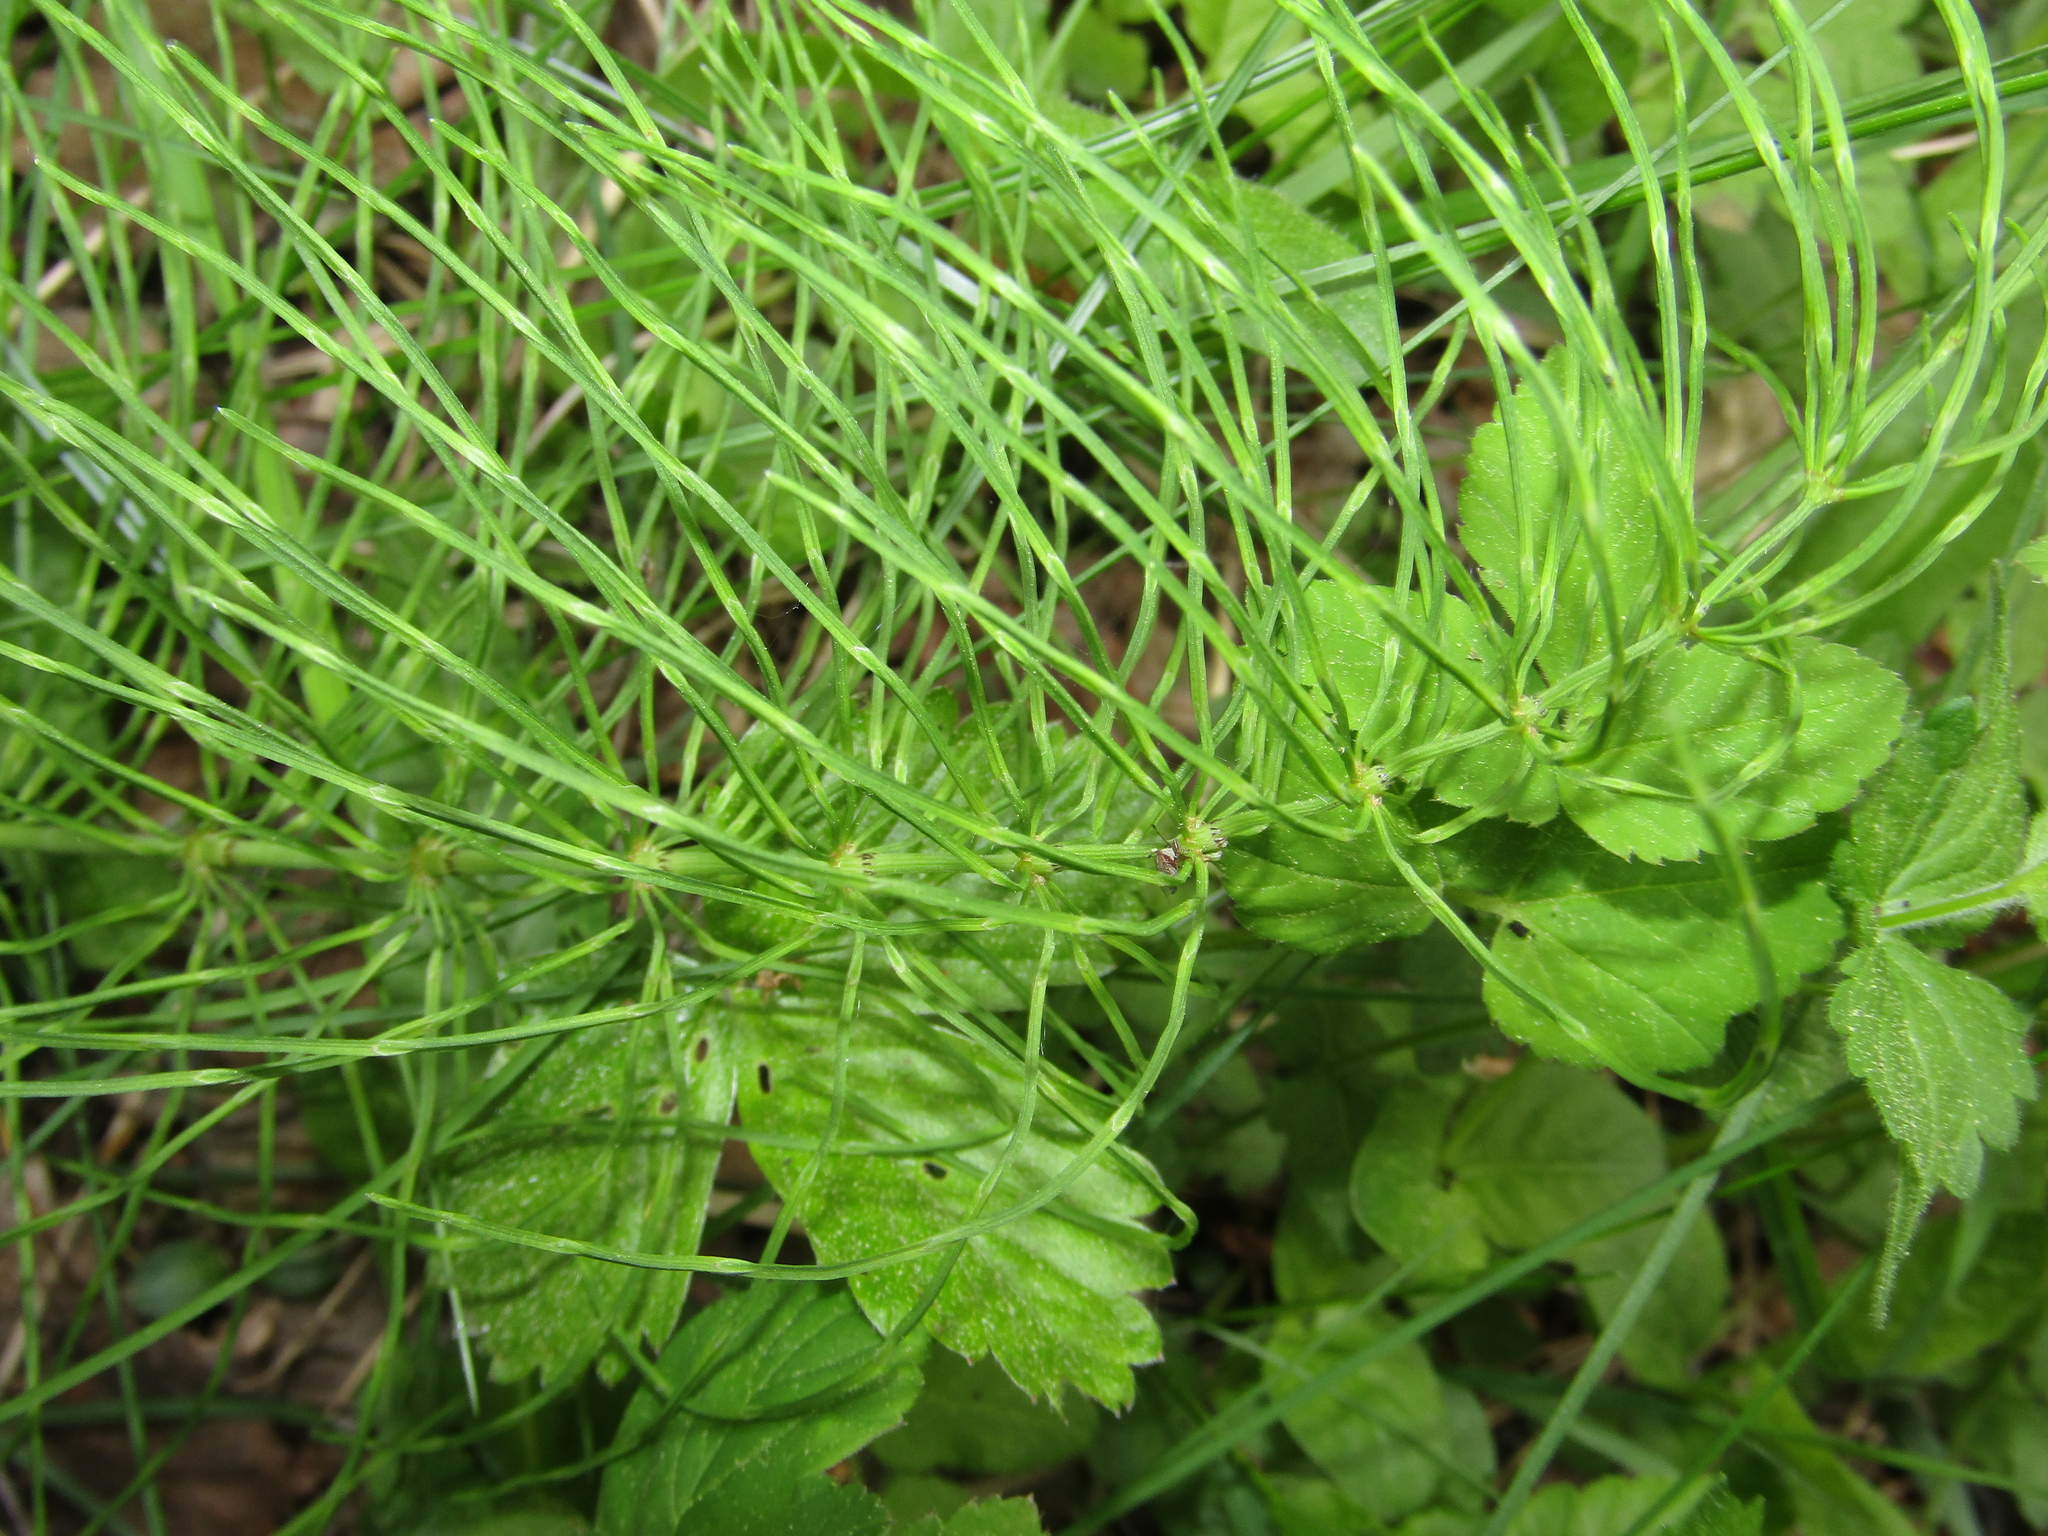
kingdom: Plantae
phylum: Tracheophyta
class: Polypodiopsida
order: Equisetales
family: Equisetaceae
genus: Equisetum
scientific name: Equisetum pratense
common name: Meadow horsetail
